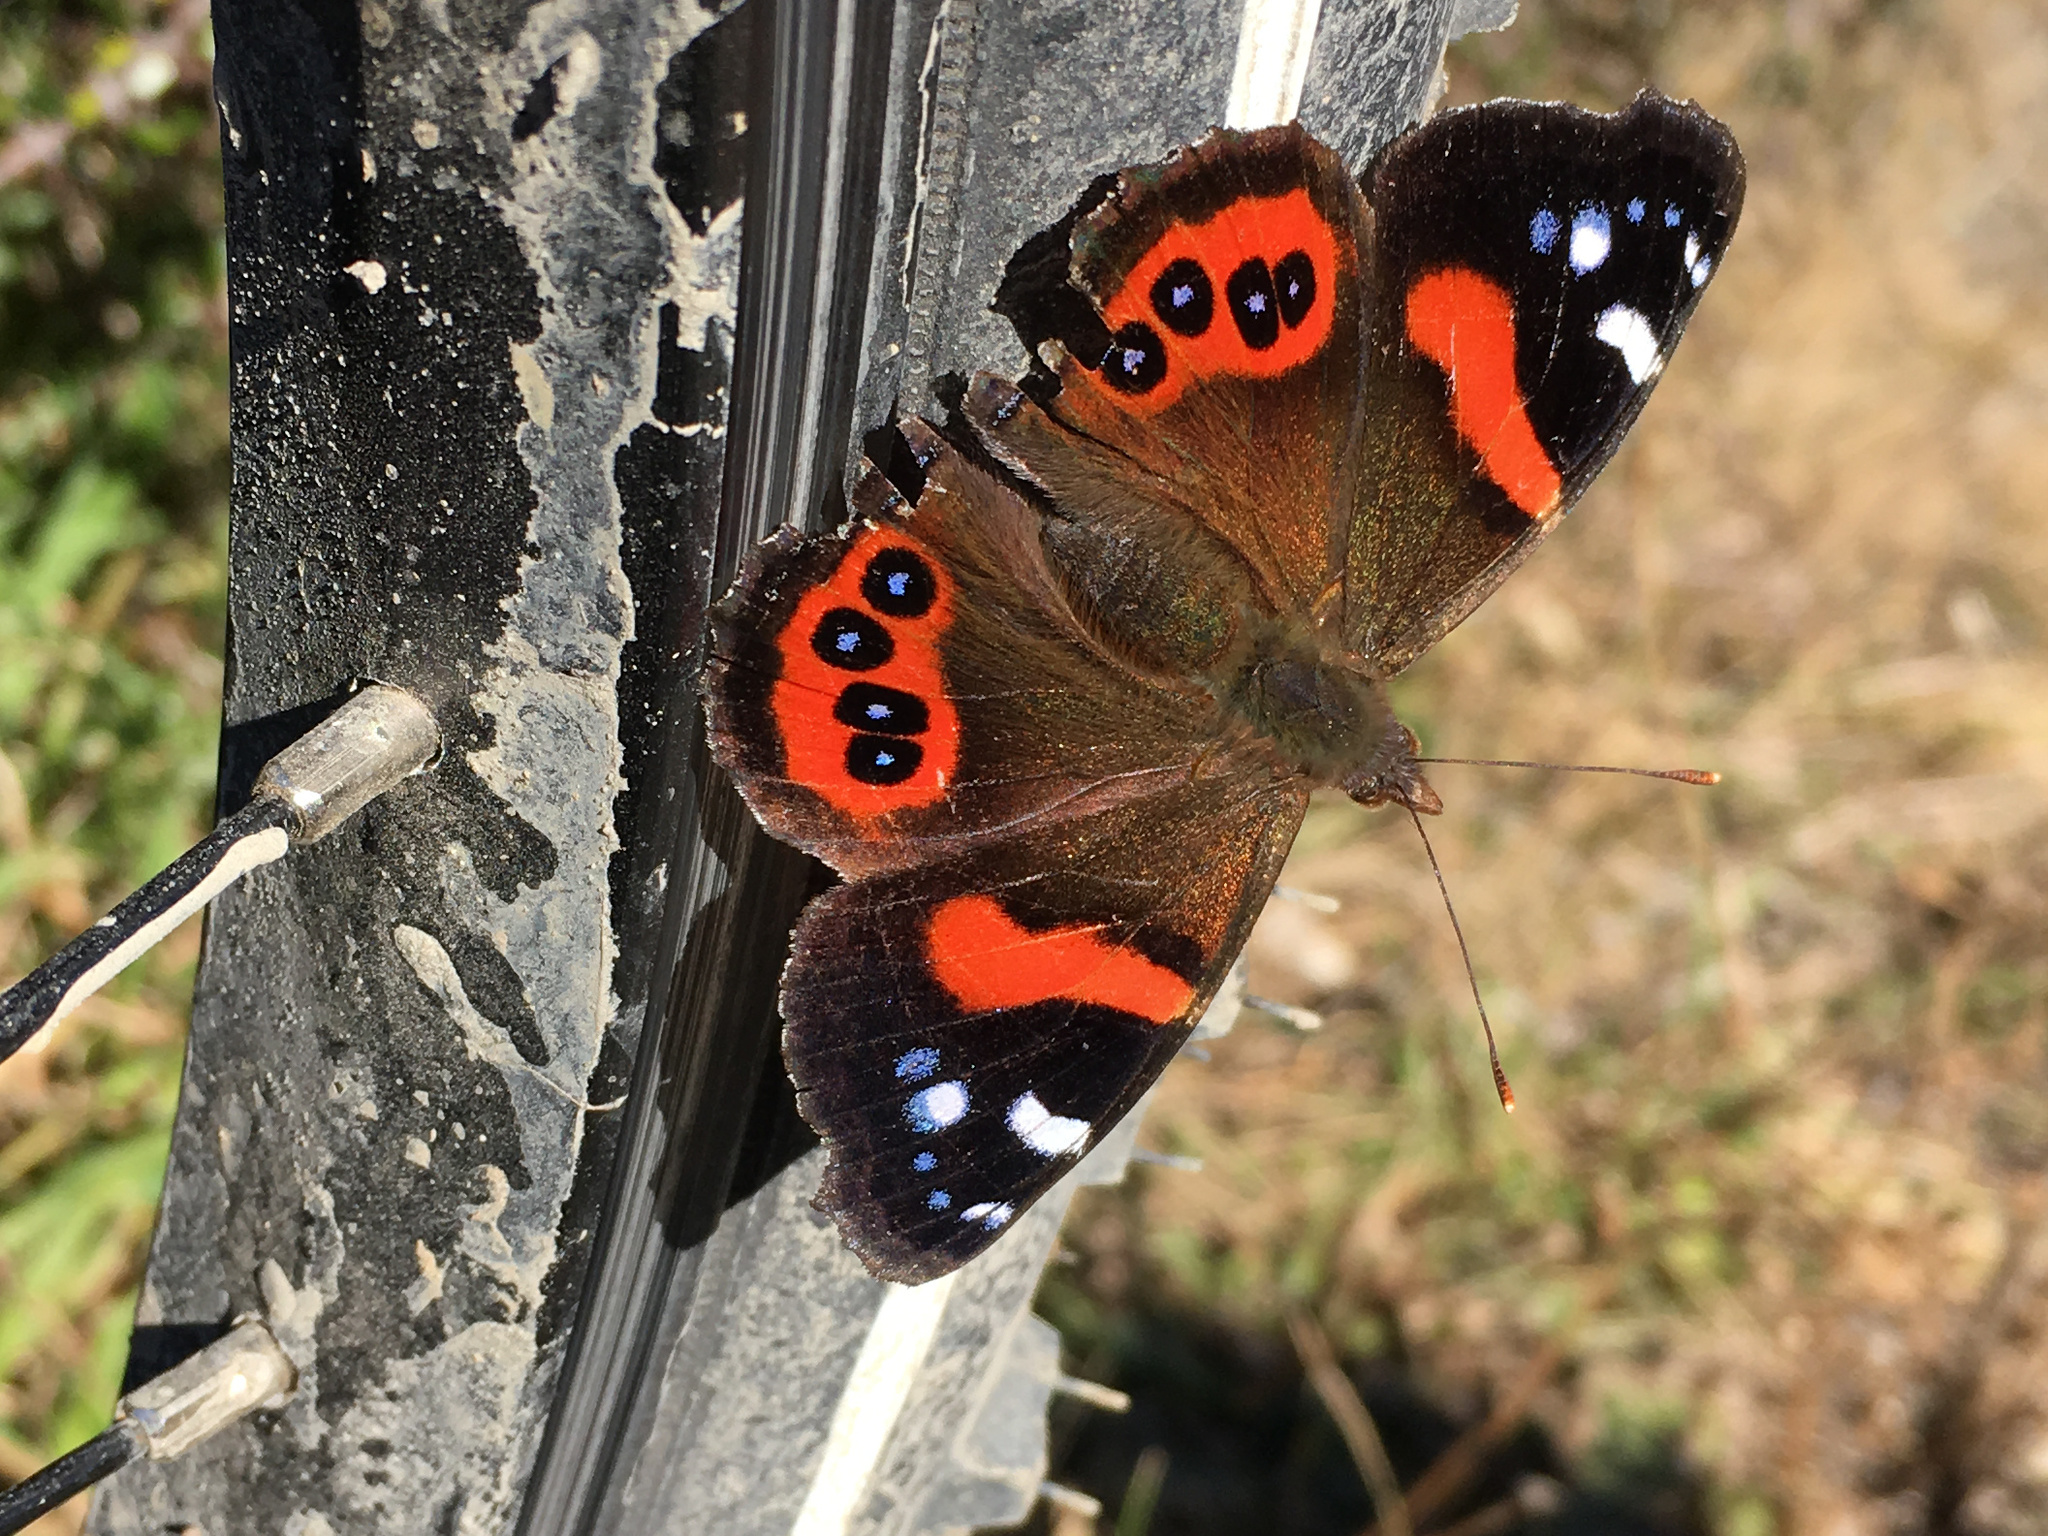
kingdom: Animalia
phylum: Arthropoda
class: Insecta
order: Lepidoptera
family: Nymphalidae
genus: Vanessa
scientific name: Vanessa gonerilla
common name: New zealand red admiral
